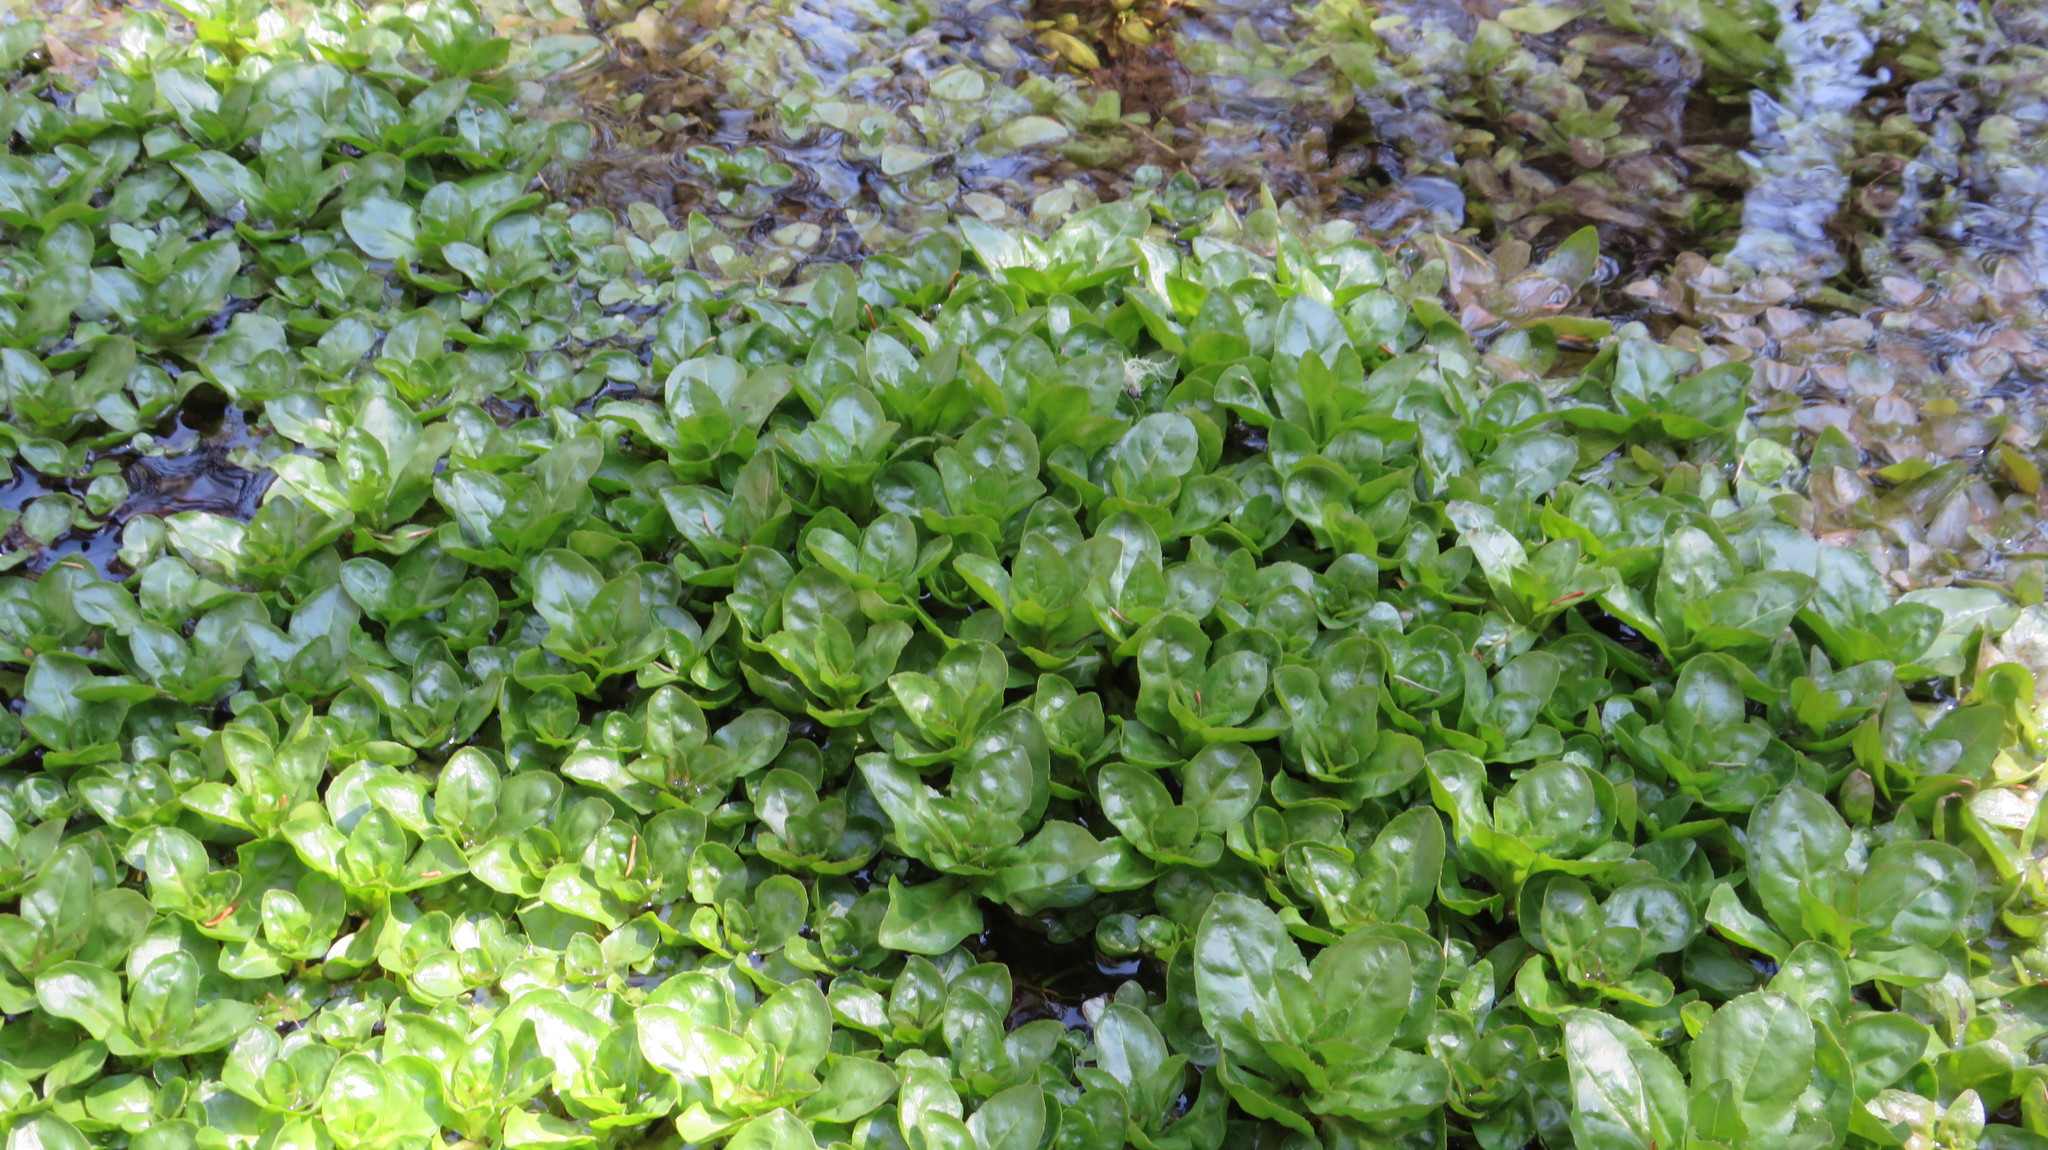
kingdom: Plantae
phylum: Tracheophyta
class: Magnoliopsida
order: Lamiales
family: Plantaginaceae
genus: Veronica
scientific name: Veronica anagallis-aquatica
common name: Water speedwell
